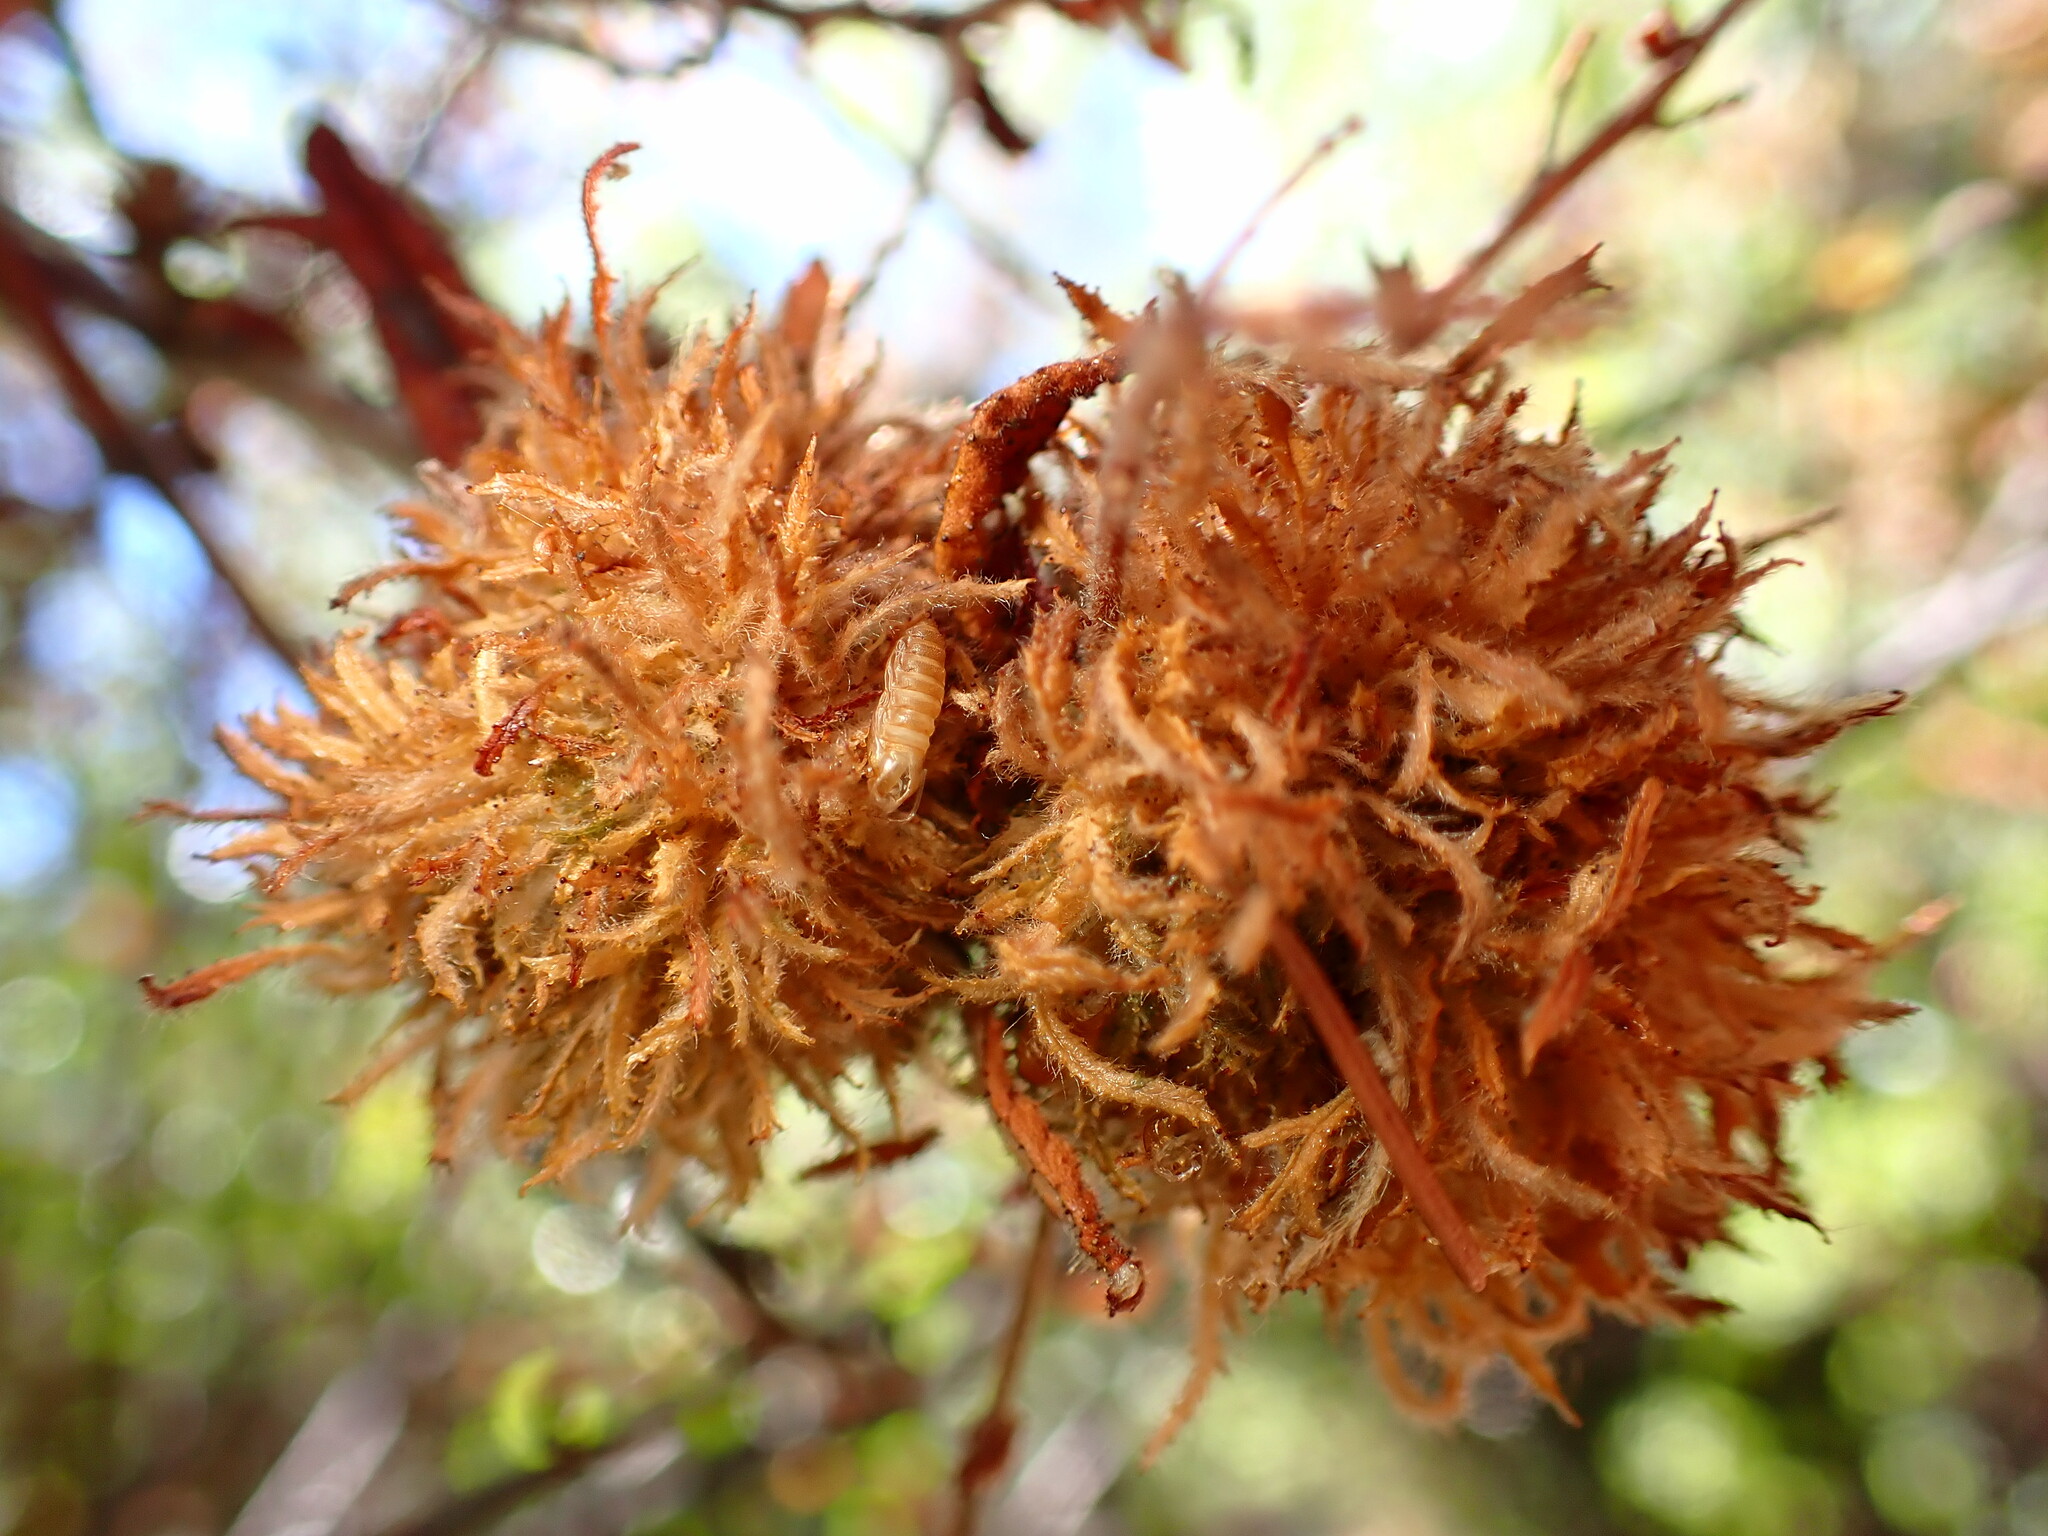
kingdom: Animalia
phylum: Arthropoda
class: Insecta
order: Diptera
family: Cecidomyiidae
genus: Asphondylia
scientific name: Asphondylia ceanothi
